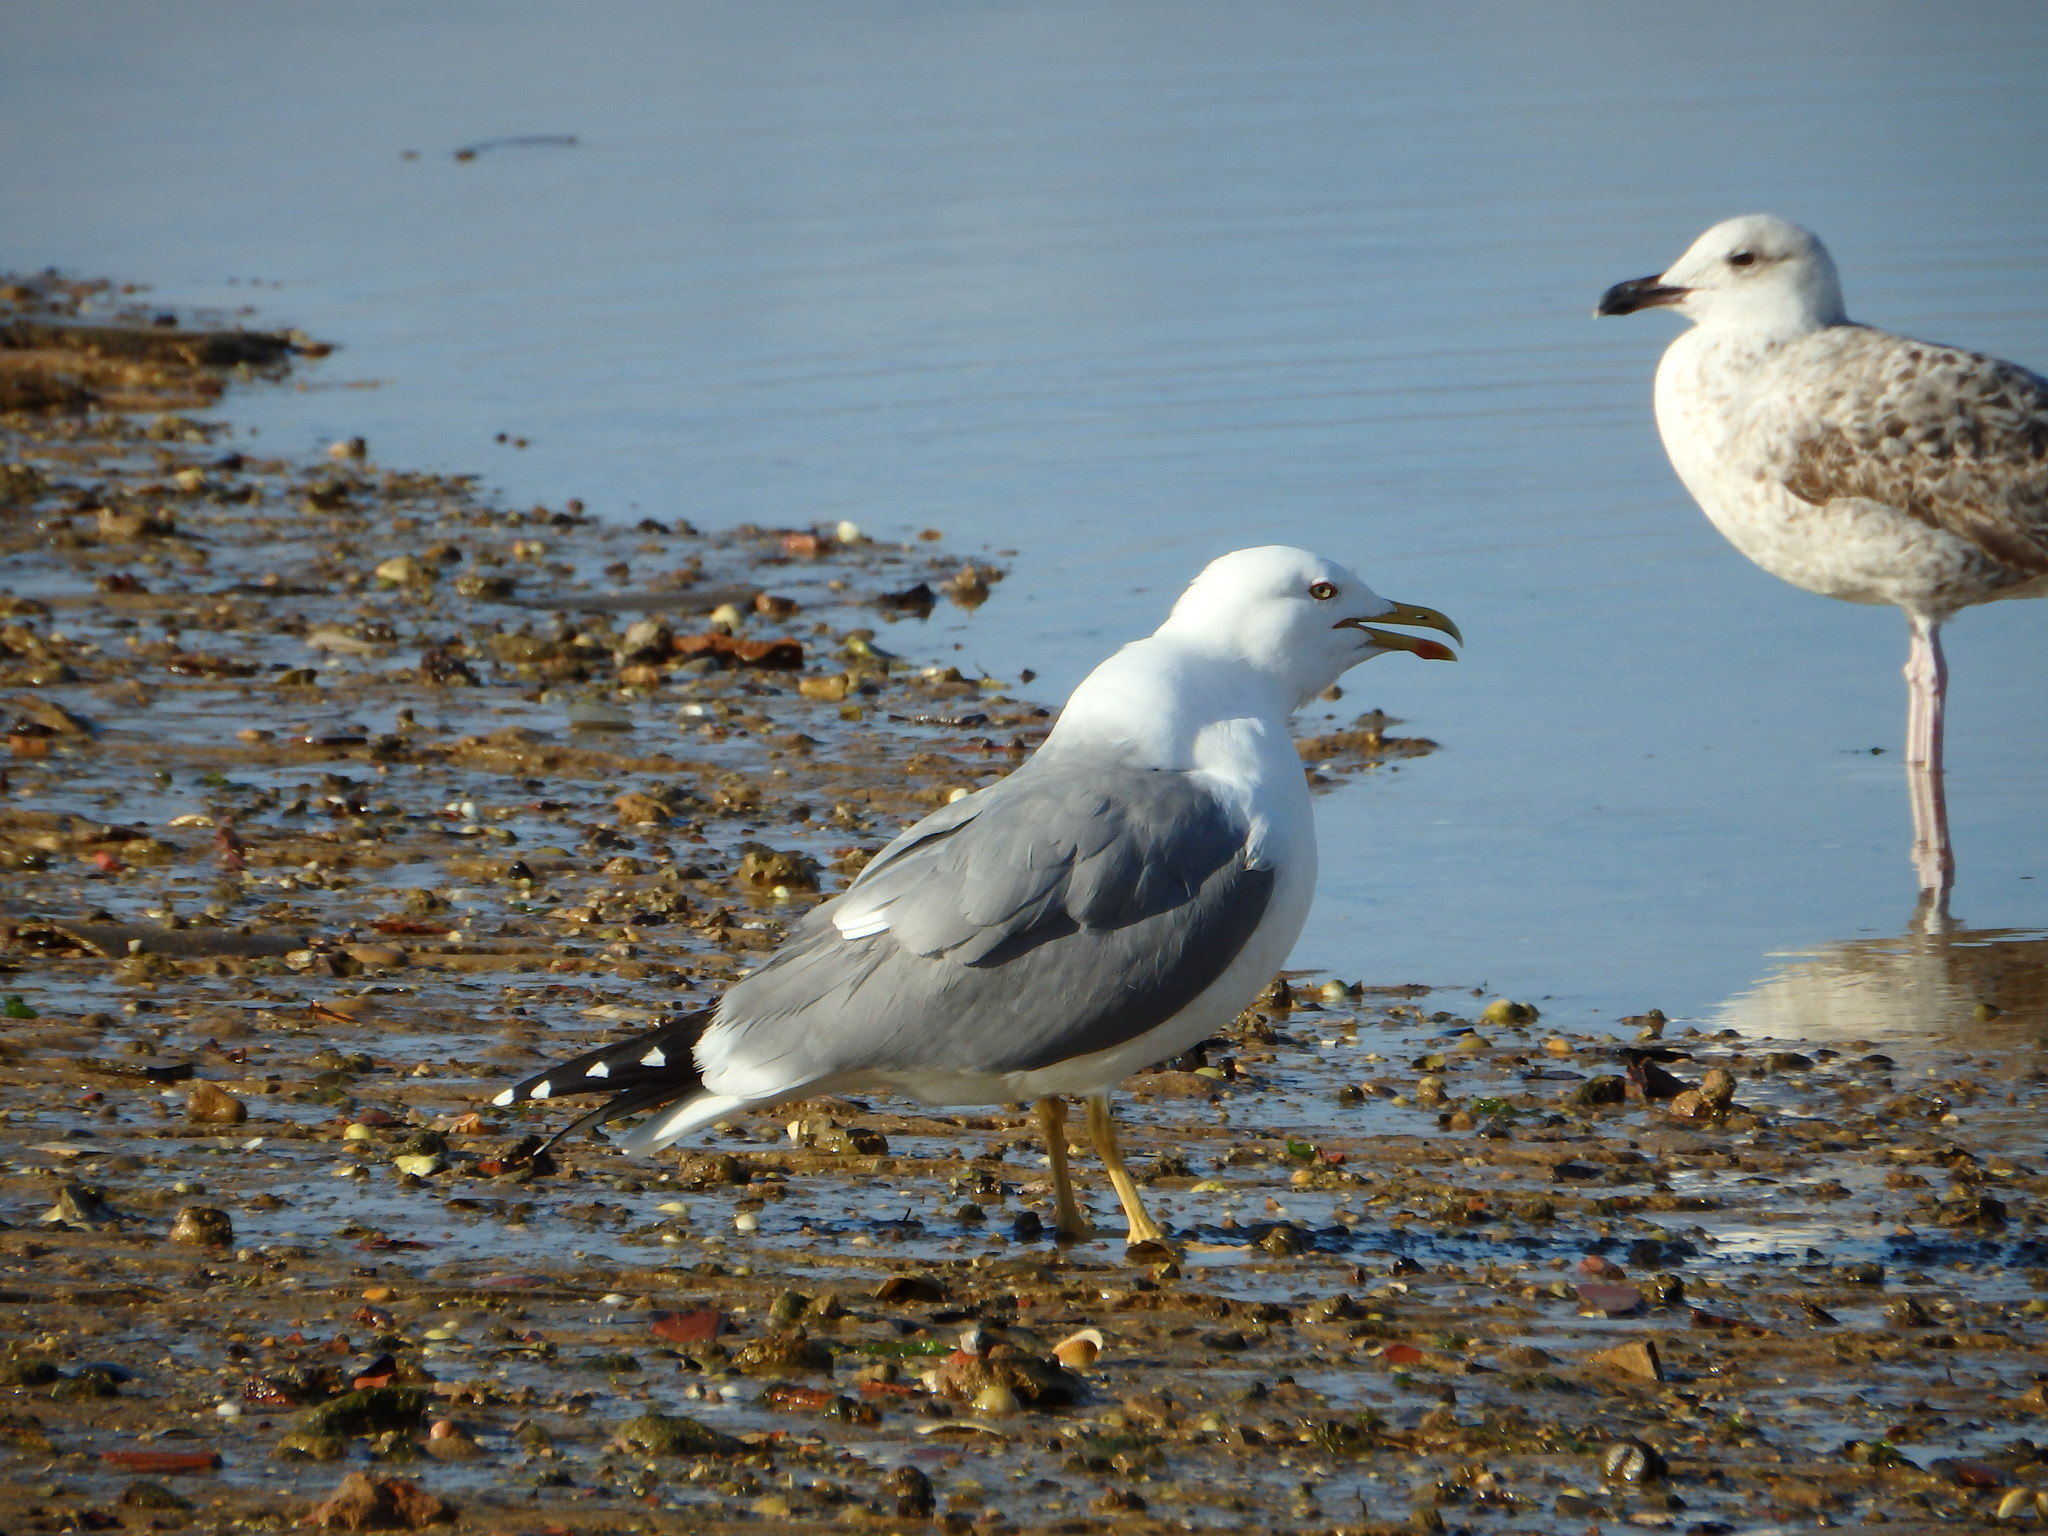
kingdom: Animalia
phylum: Chordata
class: Aves
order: Charadriiformes
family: Laridae
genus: Larus
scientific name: Larus michahellis
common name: Yellow-legged gull
